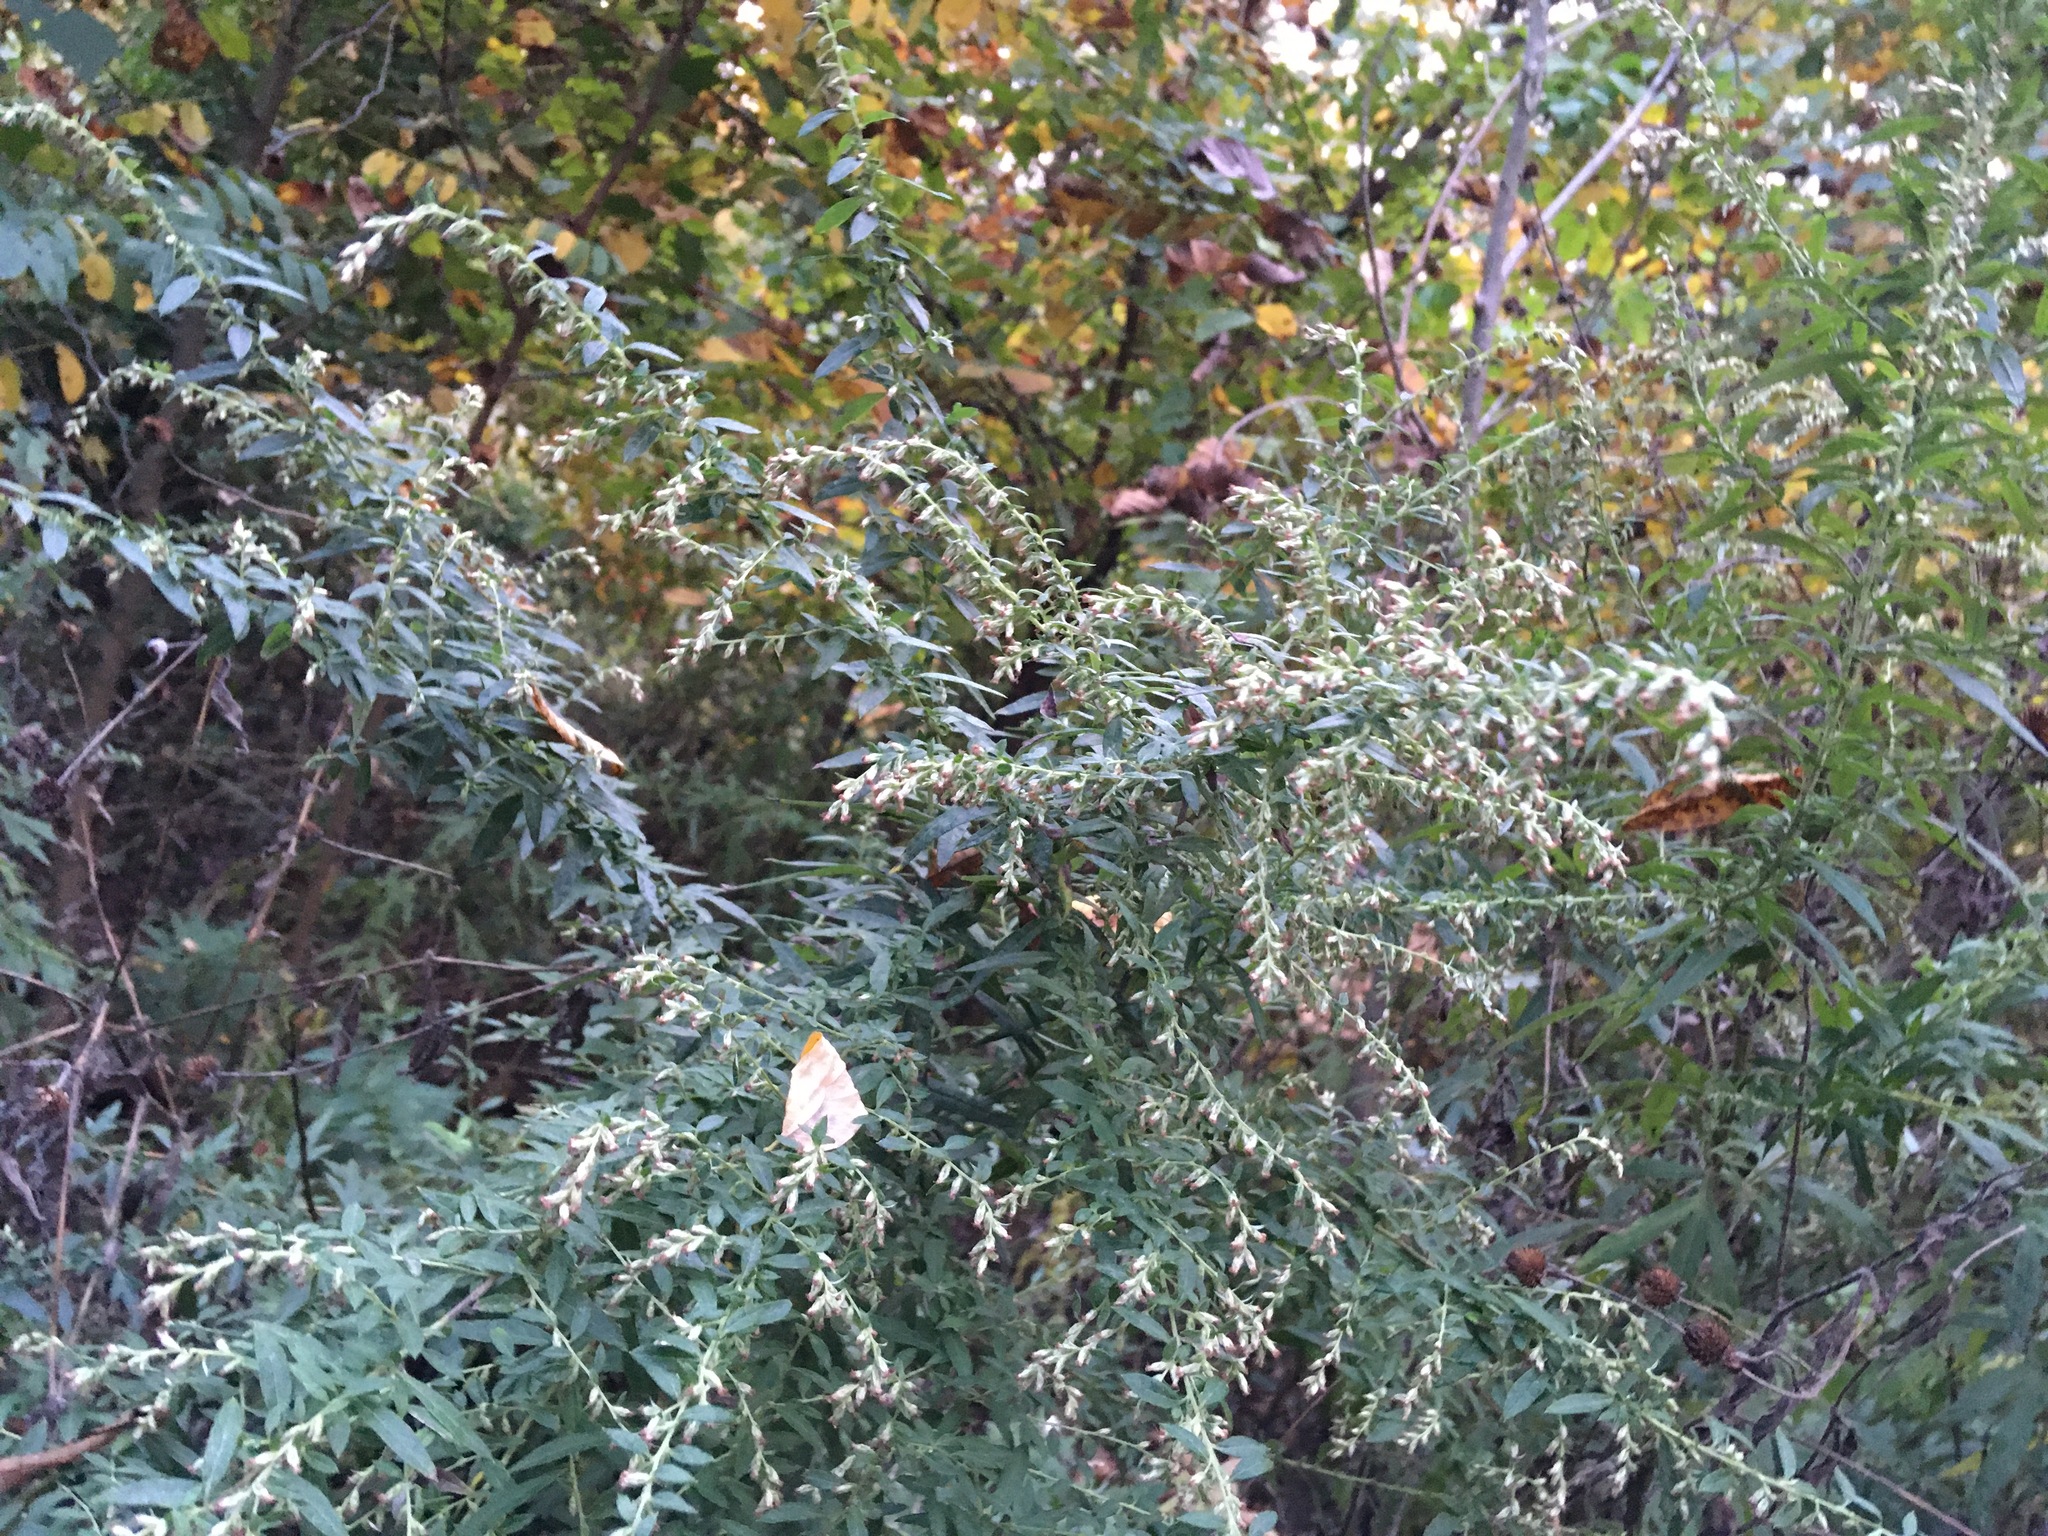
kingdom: Plantae
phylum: Tracheophyta
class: Magnoliopsida
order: Asterales
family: Asteraceae
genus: Artemisia
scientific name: Artemisia vulgaris
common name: Mugwort
